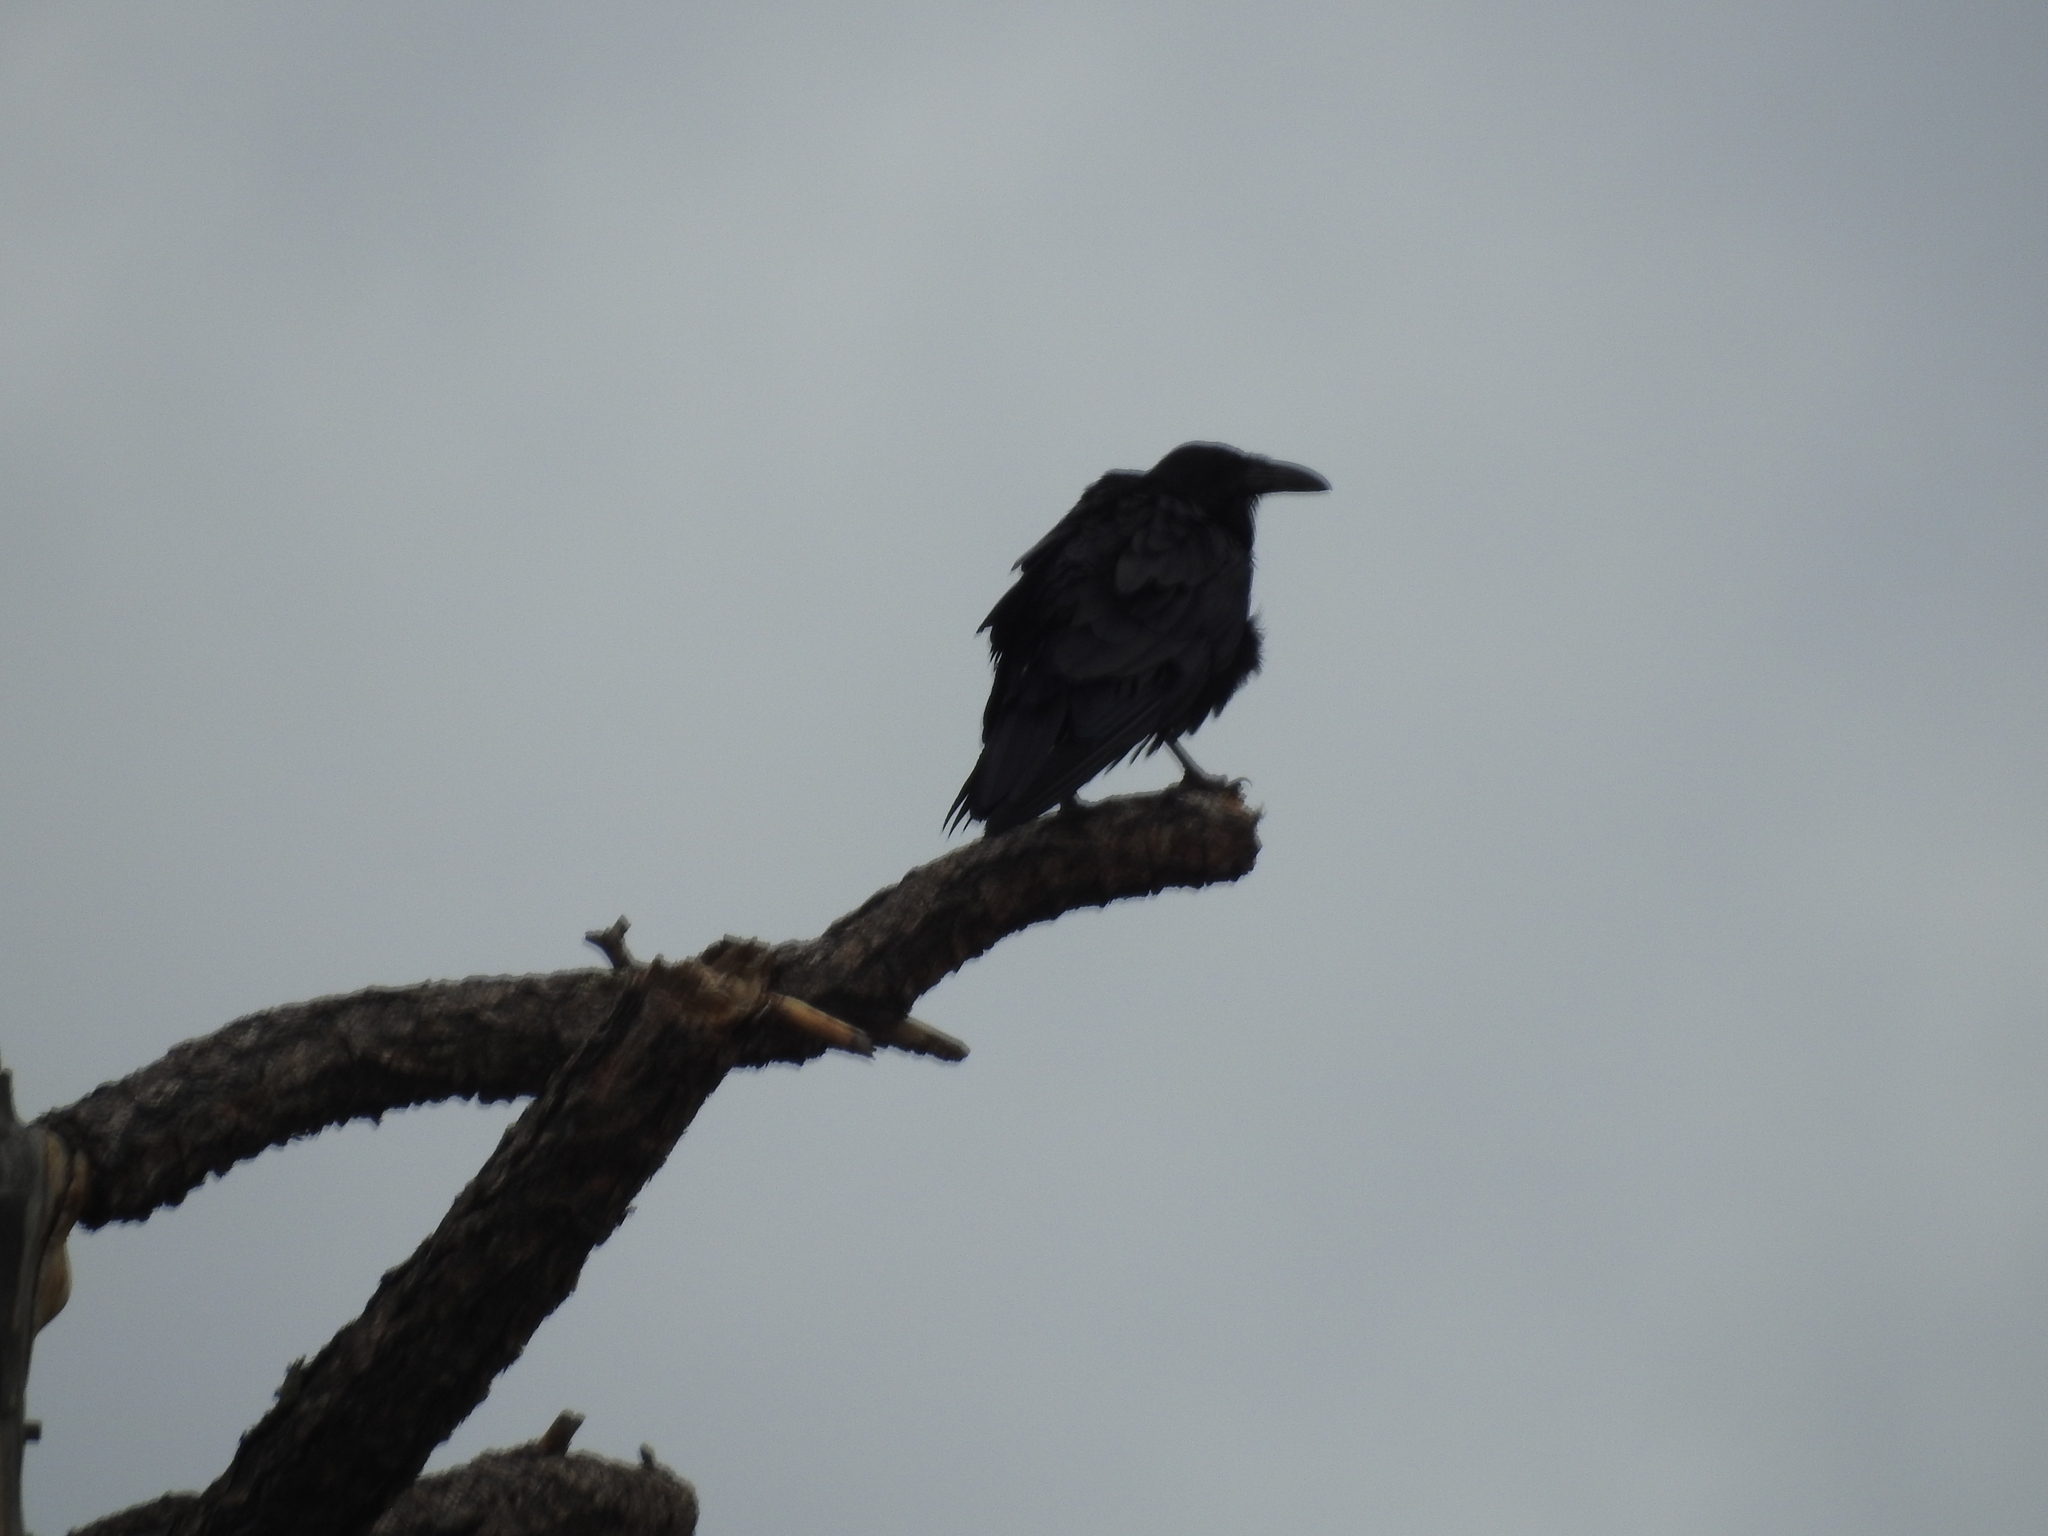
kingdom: Animalia
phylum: Chordata
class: Aves
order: Passeriformes
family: Corvidae
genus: Corvus
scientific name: Corvus corax
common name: Common raven
